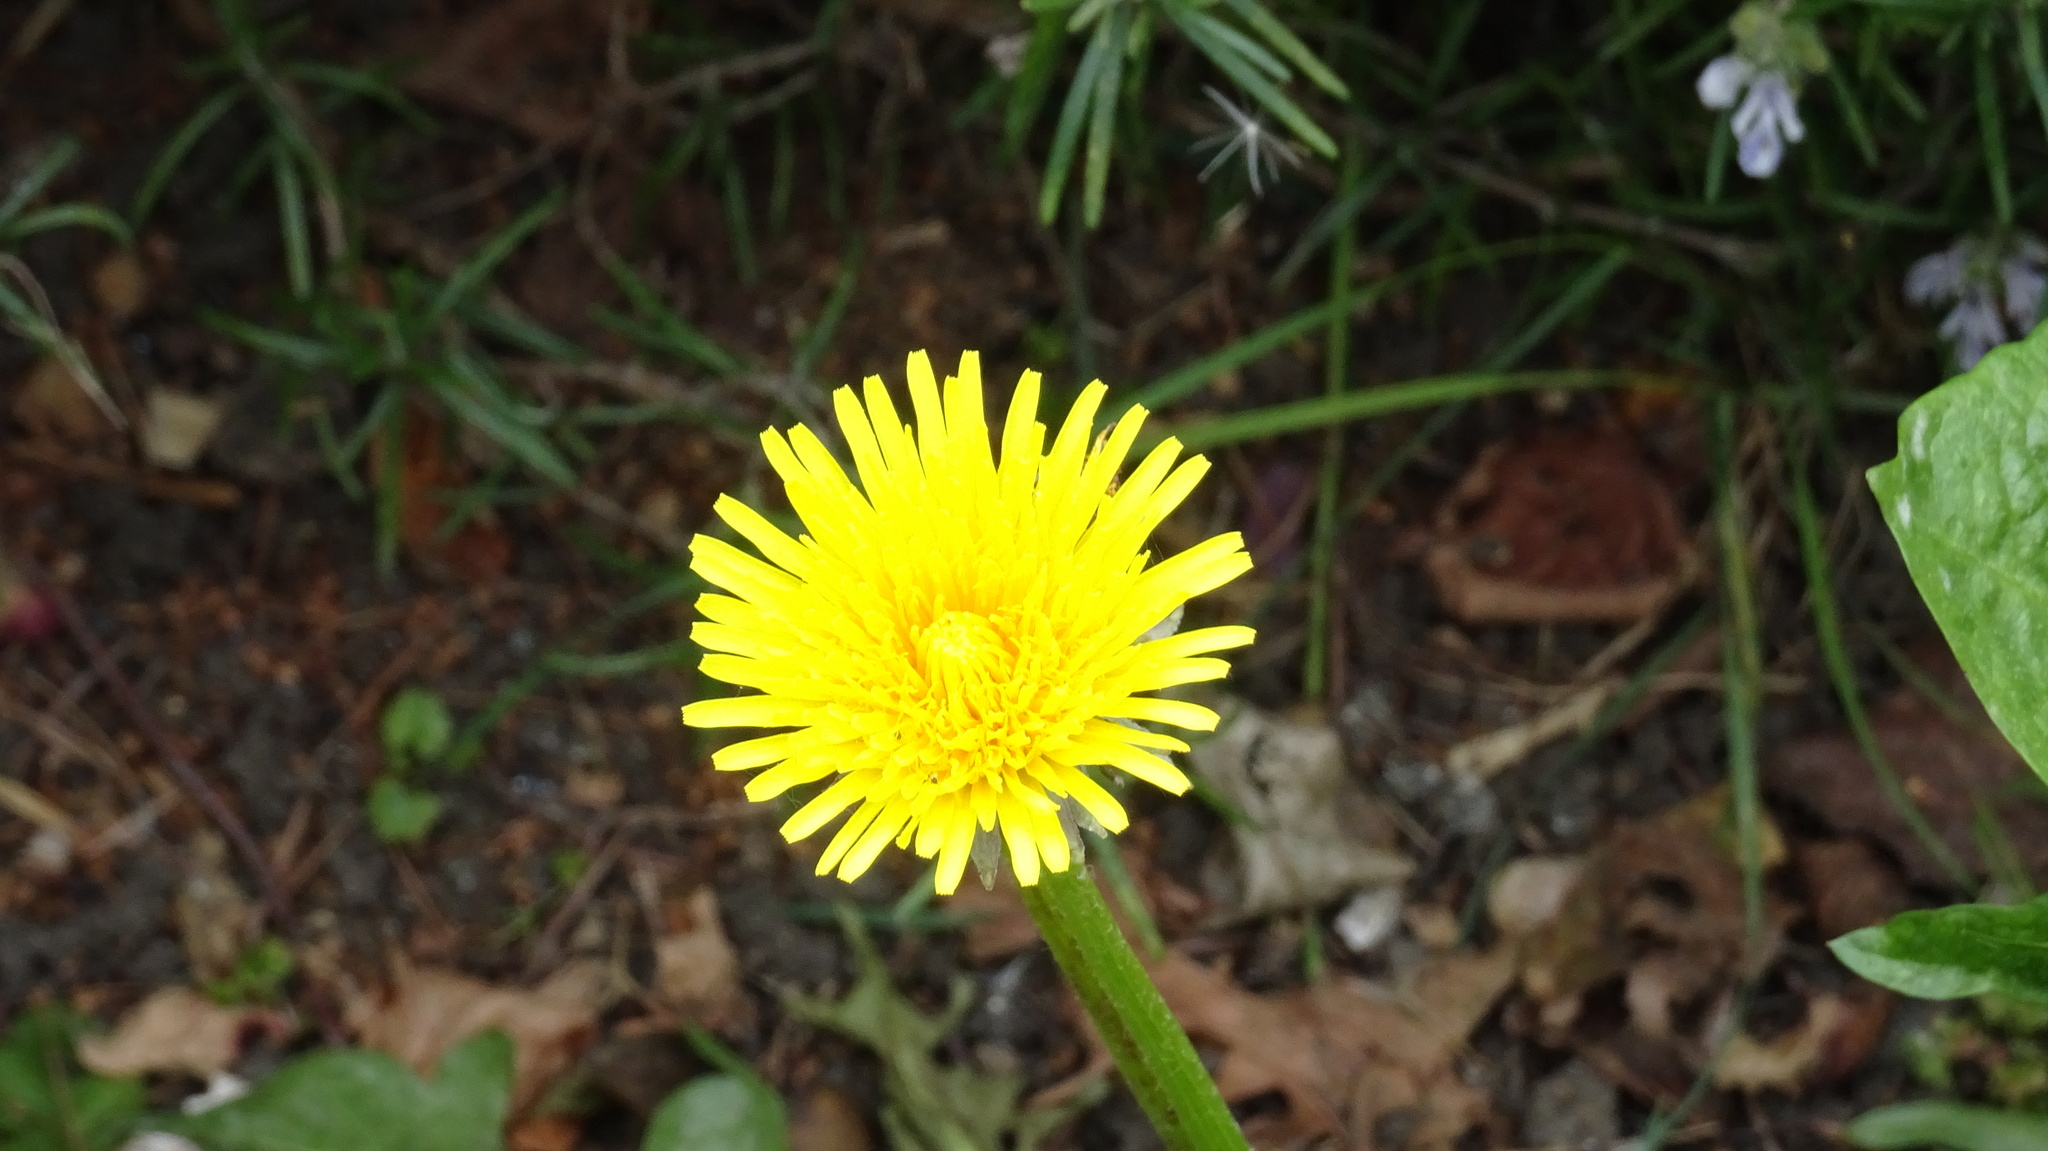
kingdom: Plantae
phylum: Tracheophyta
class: Magnoliopsida
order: Asterales
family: Asteraceae
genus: Taraxacum
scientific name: Taraxacum officinale
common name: Common dandelion
